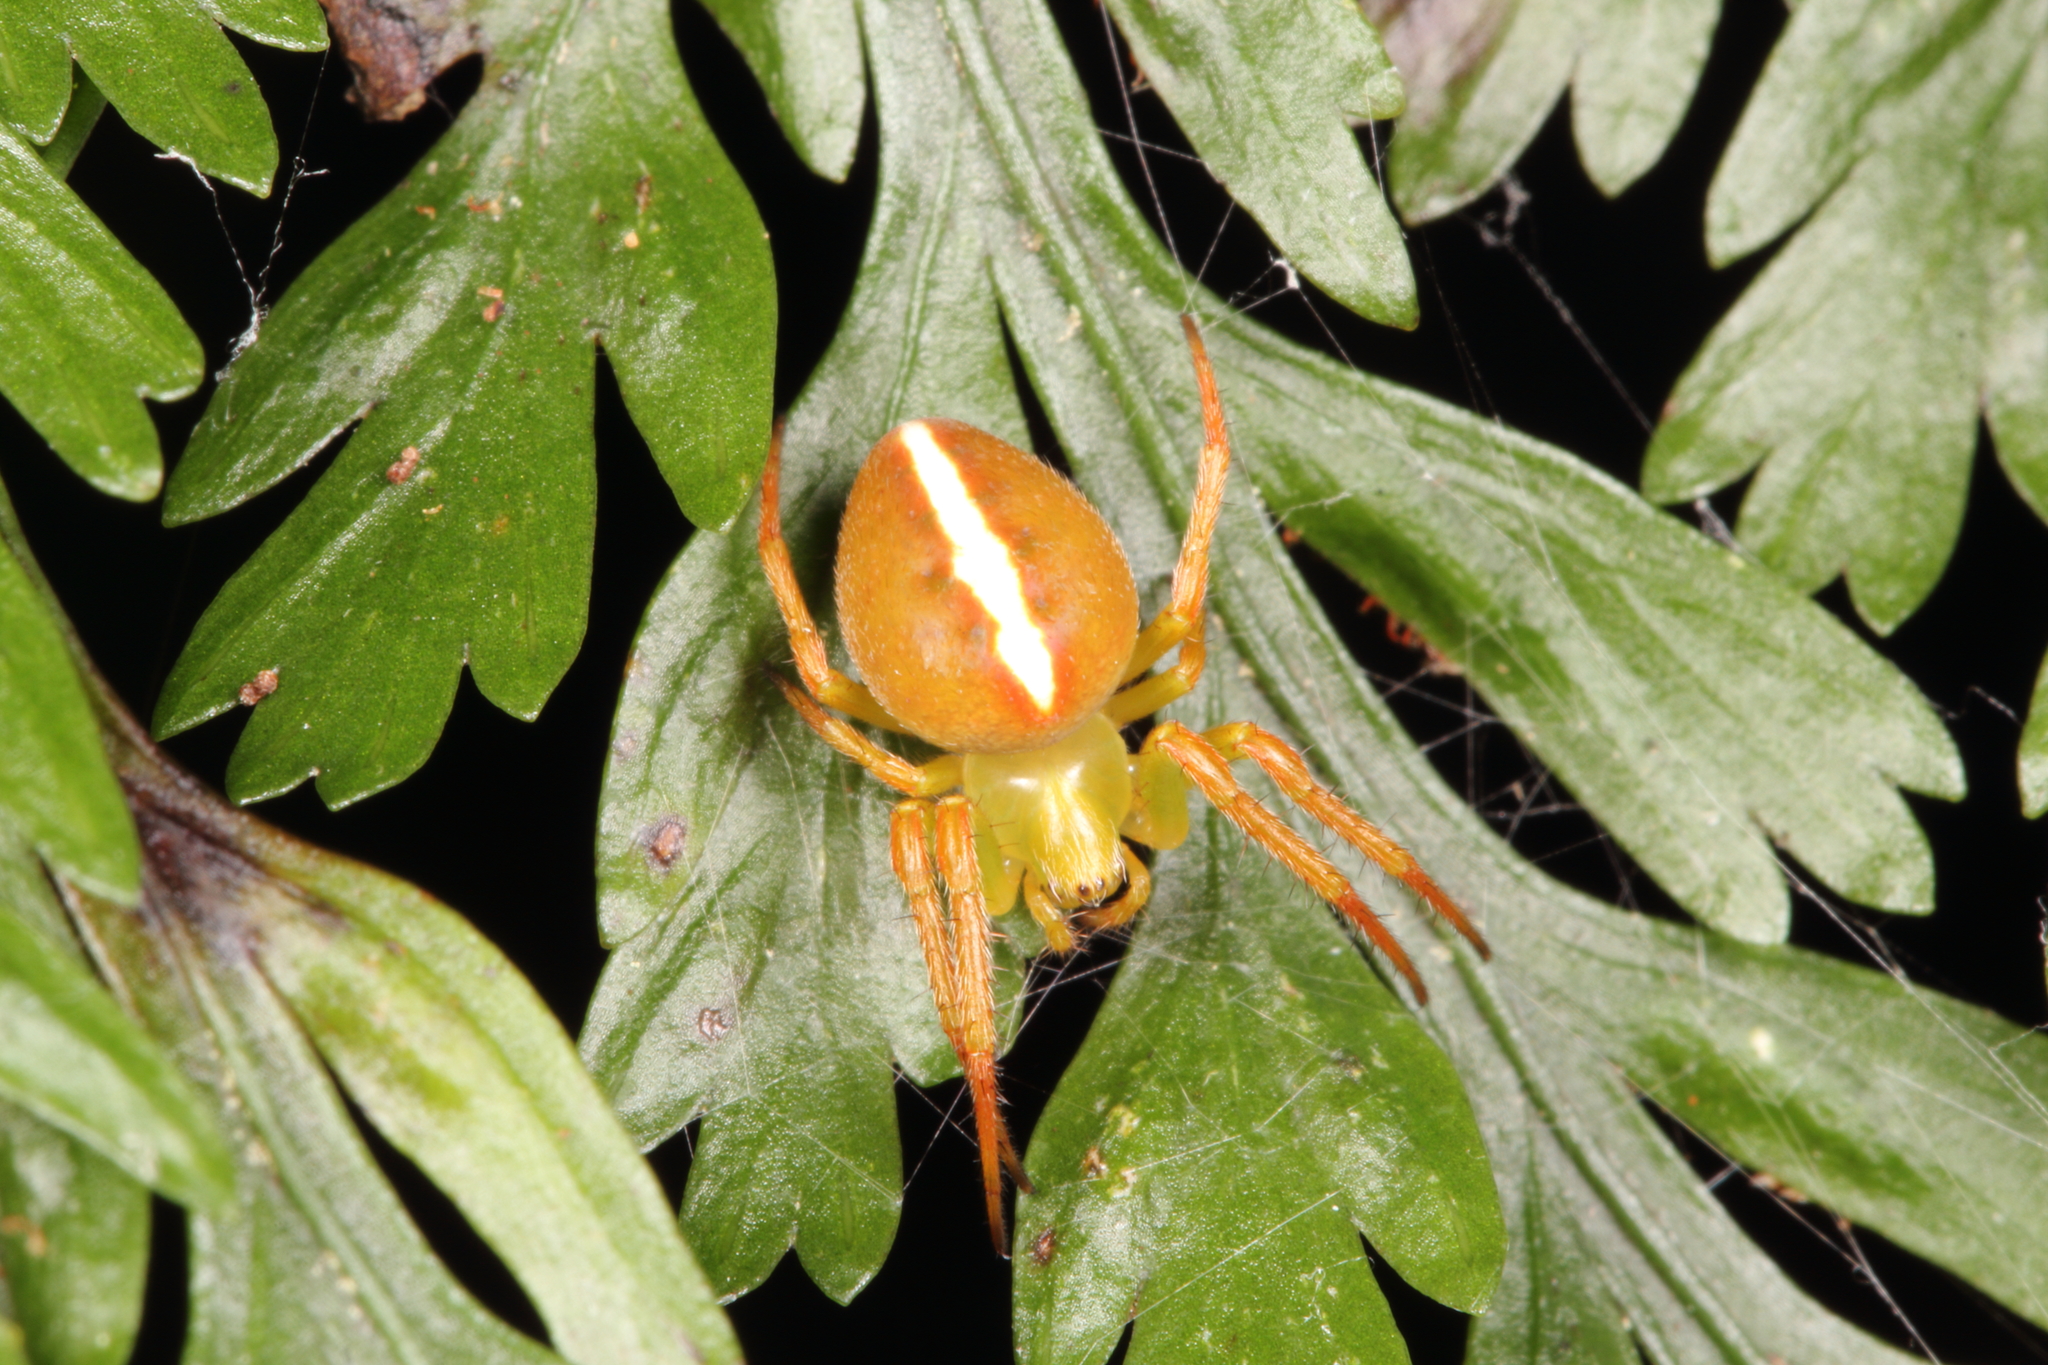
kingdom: Animalia
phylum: Arthropoda
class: Arachnida
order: Araneae
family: Araneidae
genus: Colaranea
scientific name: Colaranea brunnea
